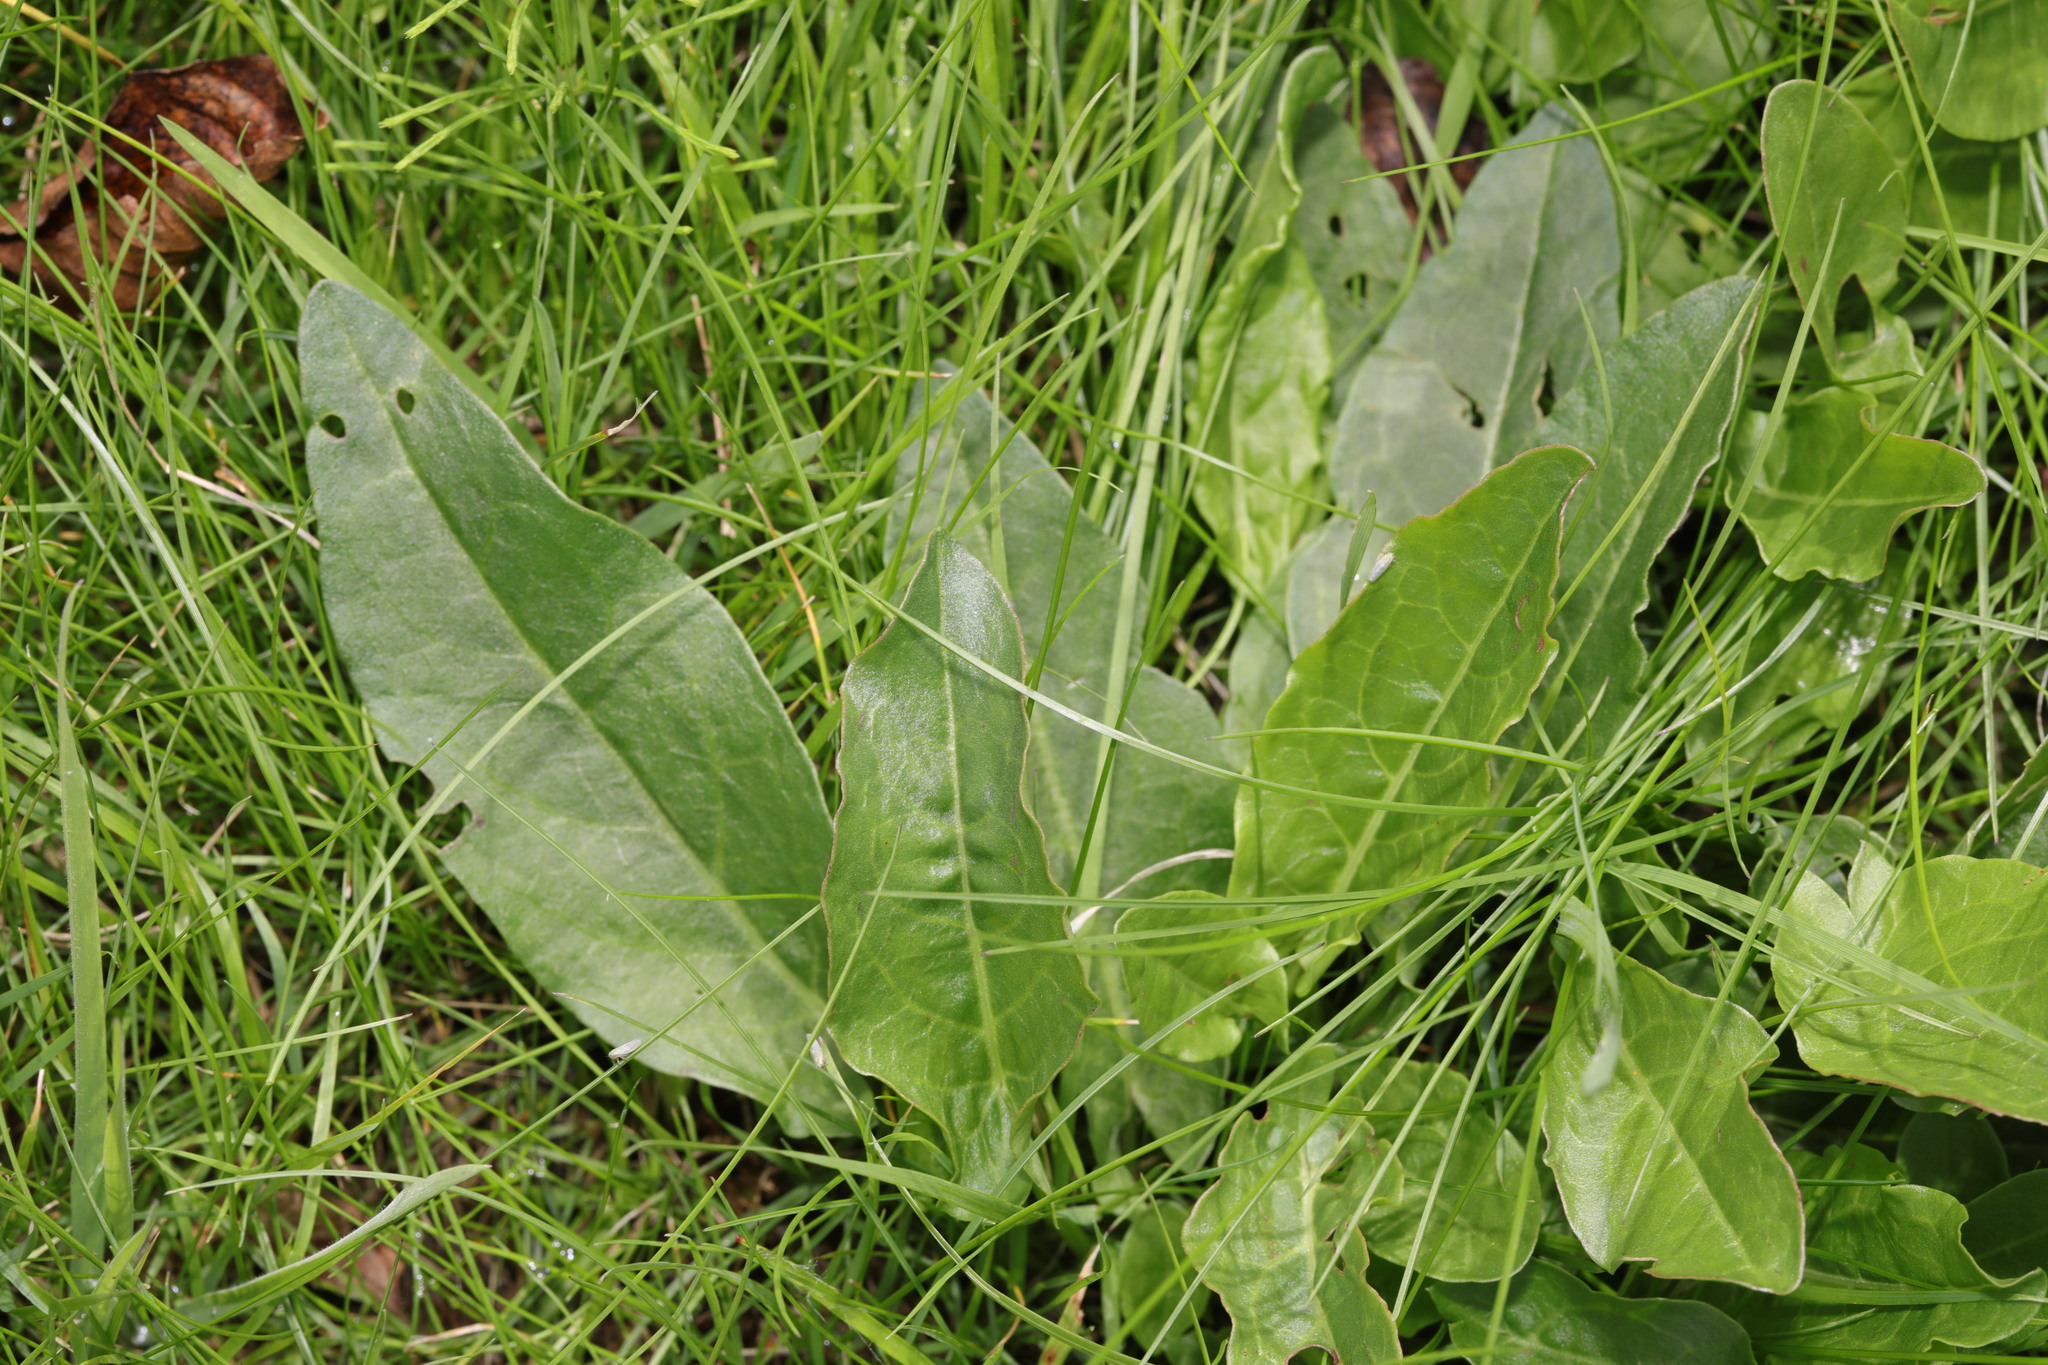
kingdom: Plantae
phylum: Tracheophyta
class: Magnoliopsida
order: Caryophyllales
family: Polygonaceae
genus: Rumex
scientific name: Rumex acetosa
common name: Garden sorrel
